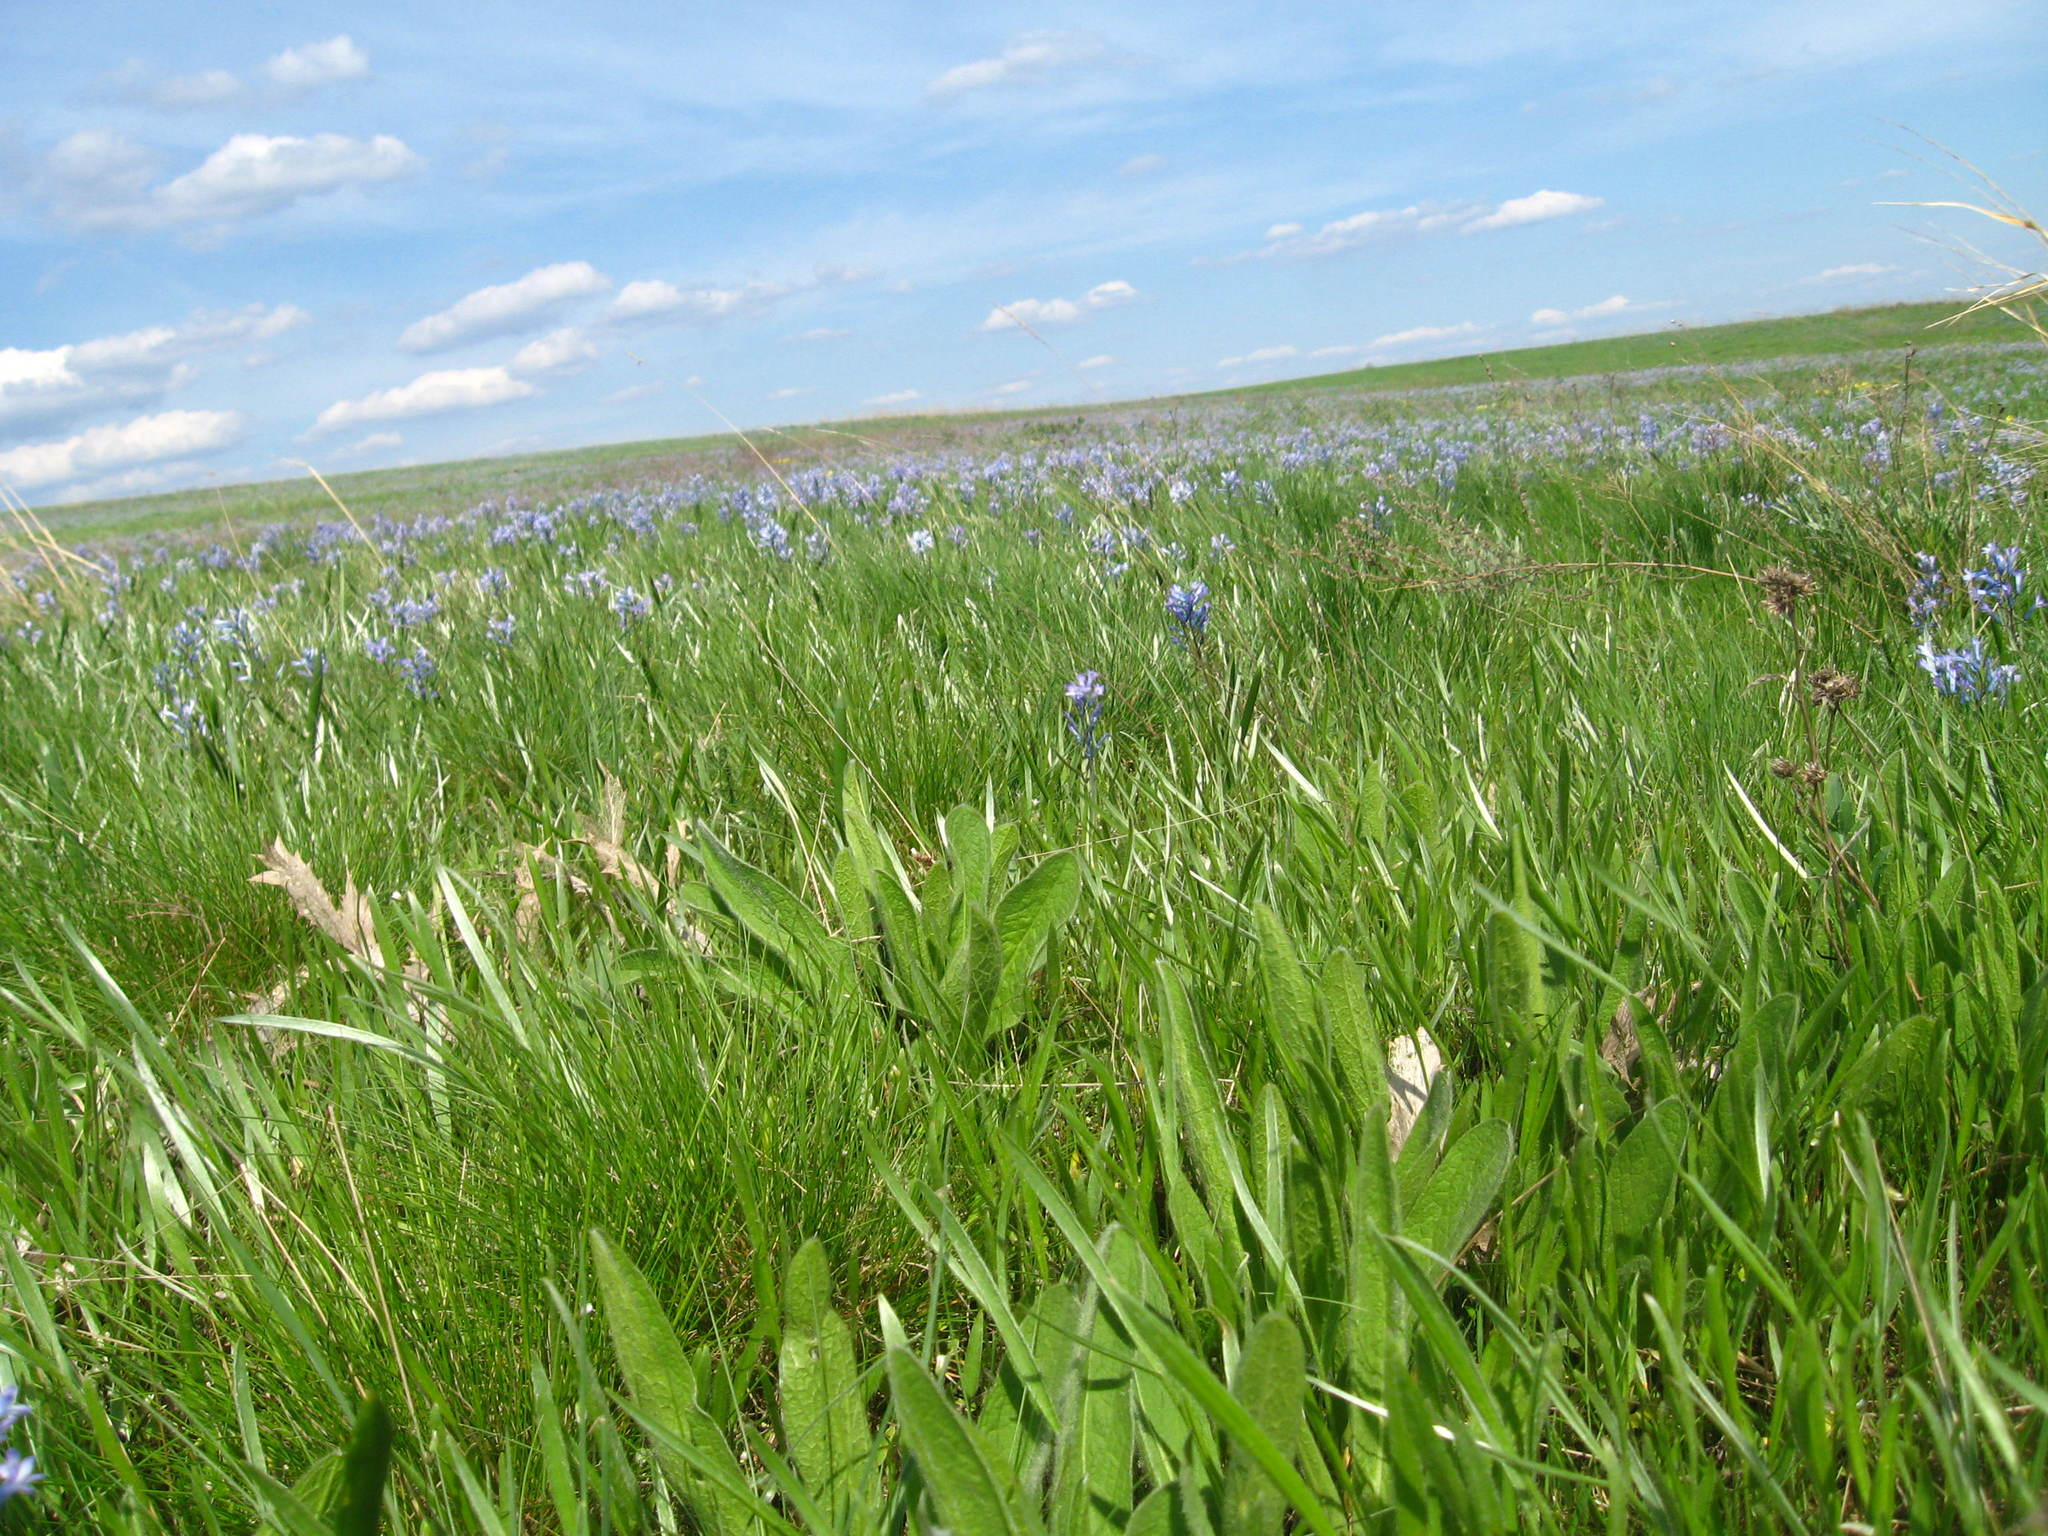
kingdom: Plantae
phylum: Tracheophyta
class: Liliopsida
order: Asparagales
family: Asparagaceae
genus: Hyacinthella
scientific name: Hyacinthella pallasiana
